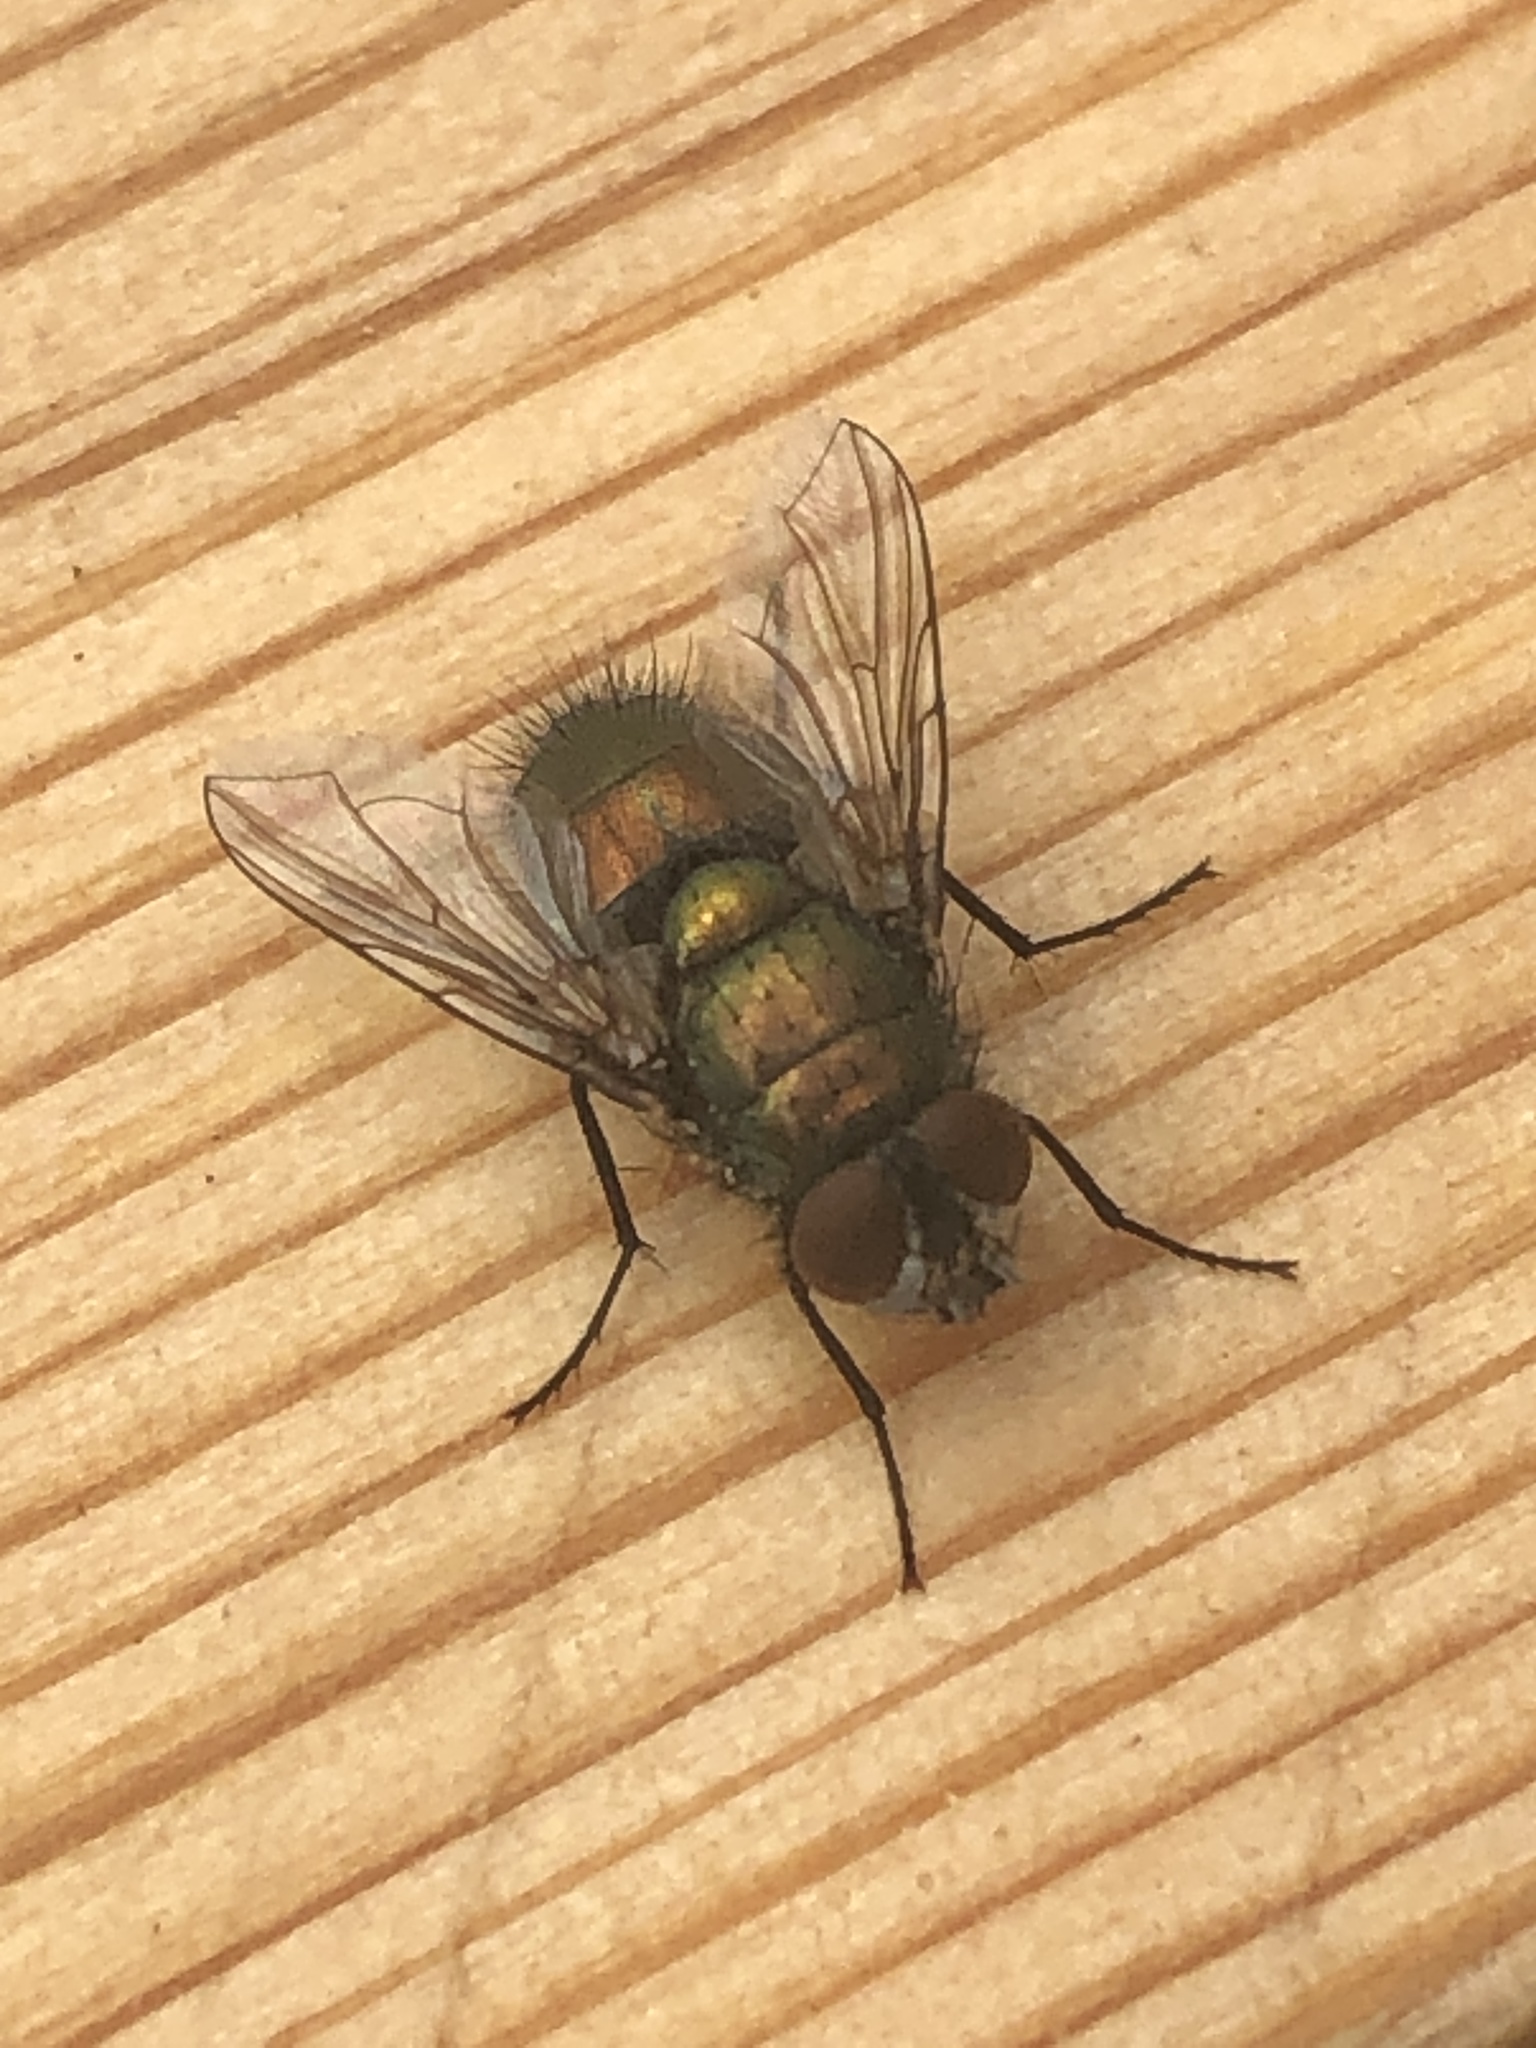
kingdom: Animalia
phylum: Arthropoda
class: Insecta
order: Diptera
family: Calliphoridae
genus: Lucilia
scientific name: Lucilia sericata
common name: Blow fly
